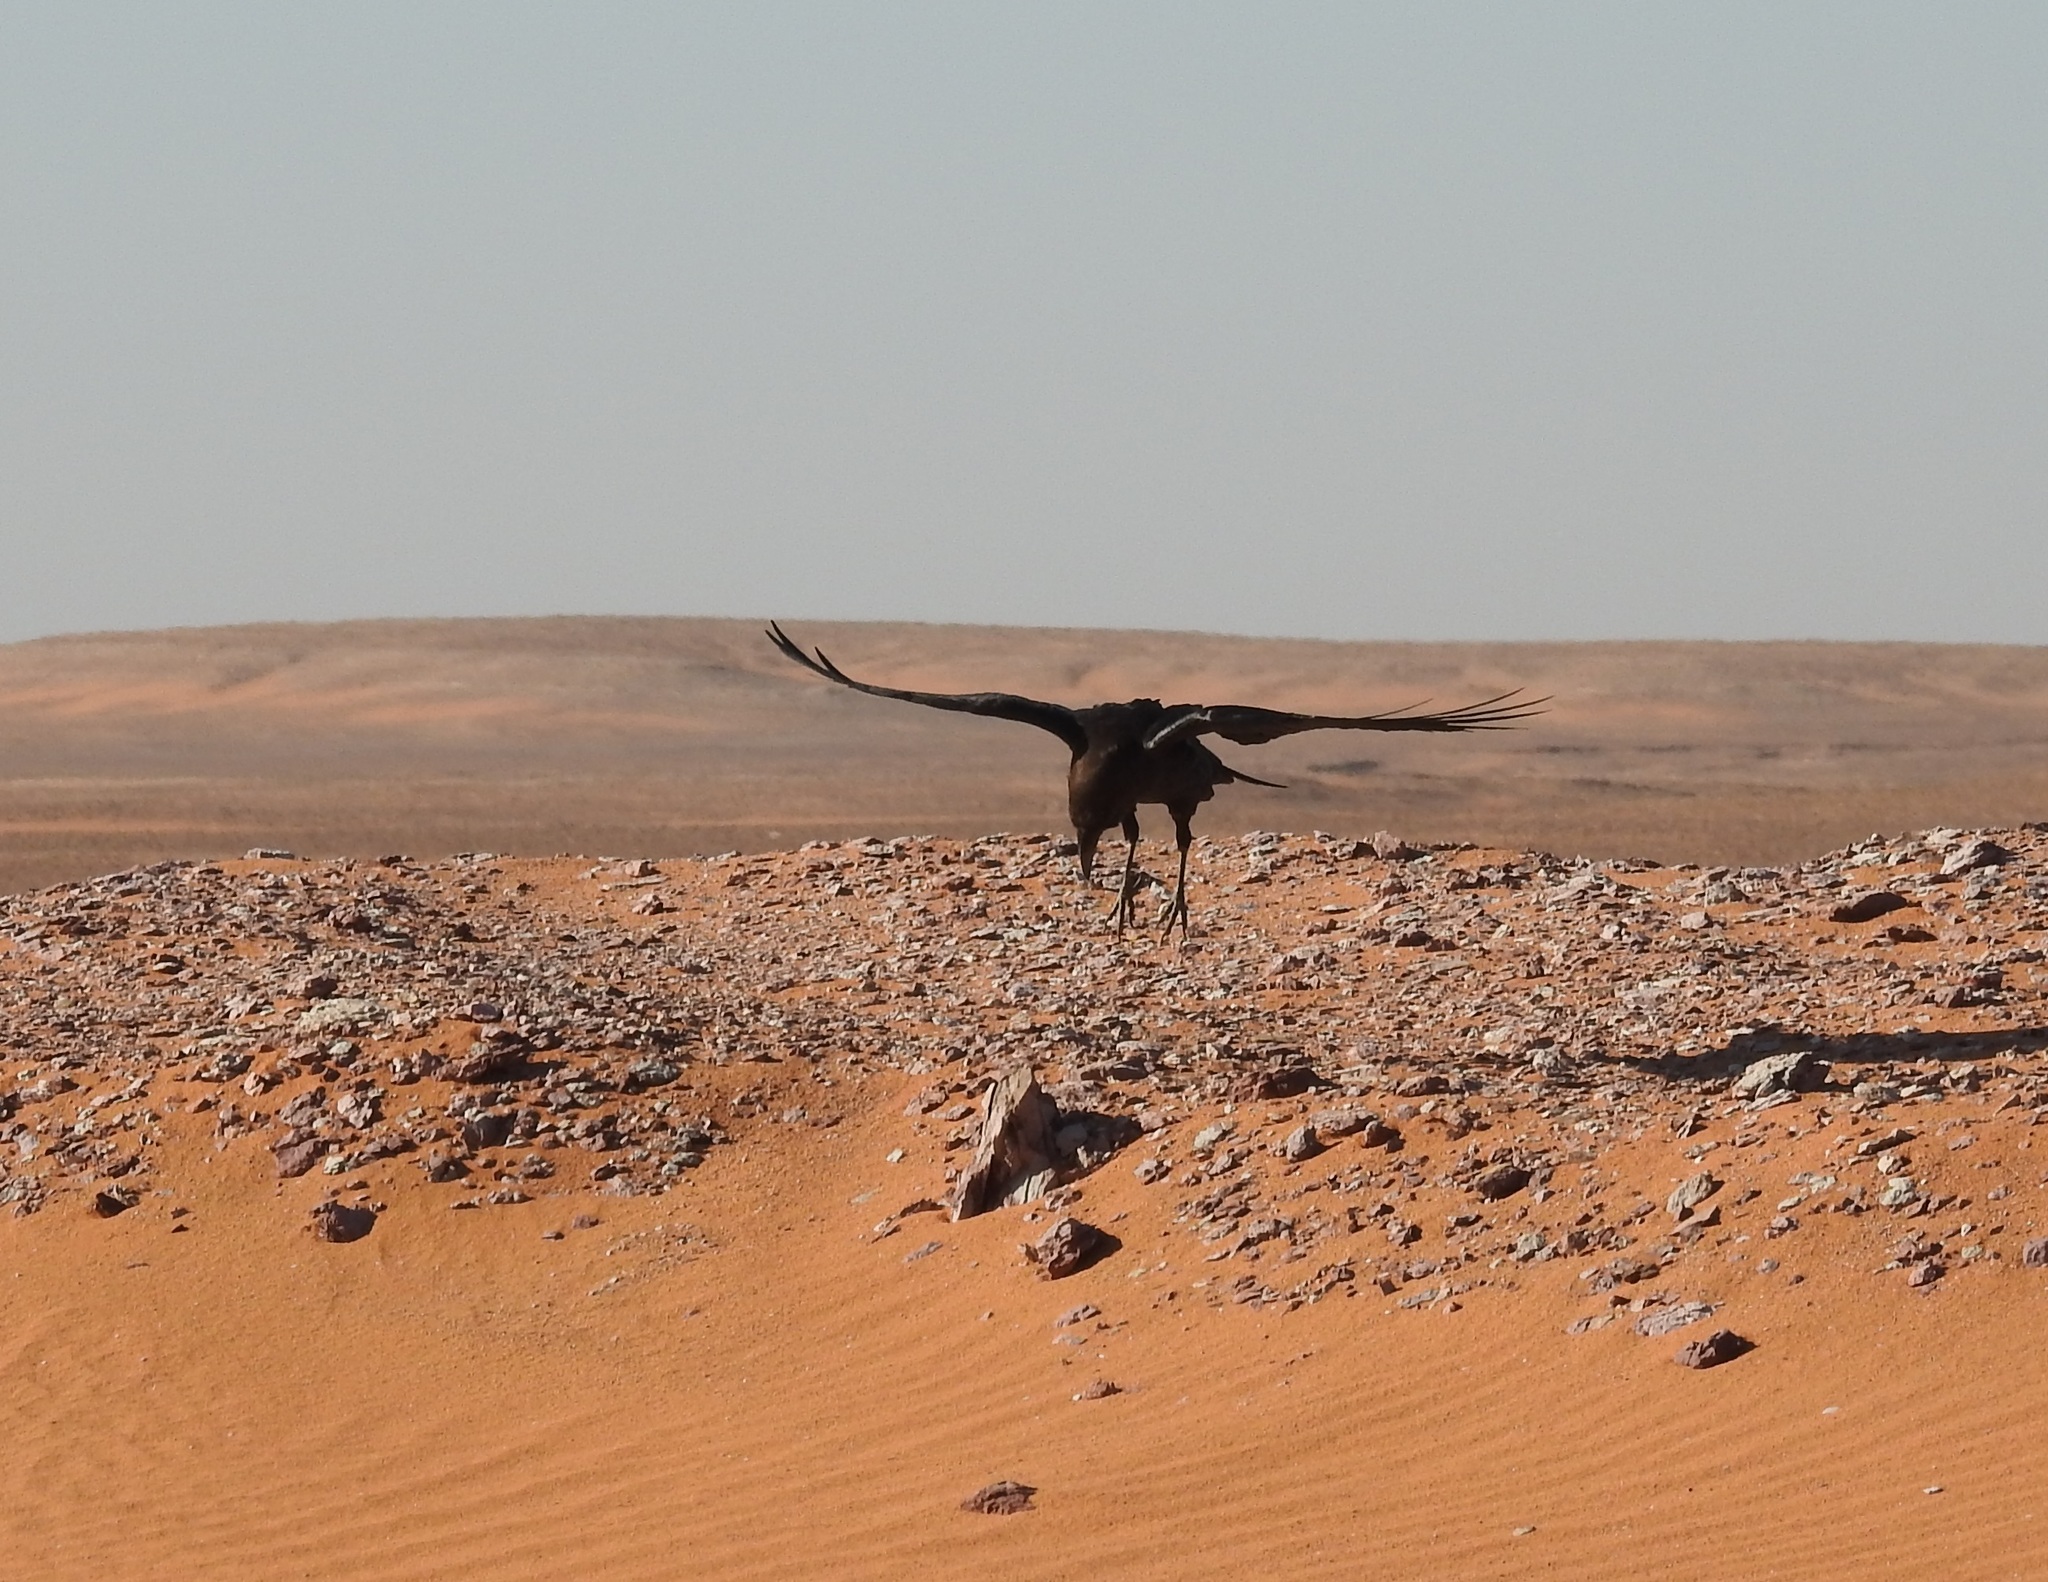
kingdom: Animalia
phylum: Chordata
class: Aves
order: Passeriformes
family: Corvidae
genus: Corvus
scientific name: Corvus ruficollis
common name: Brown-necked raven
